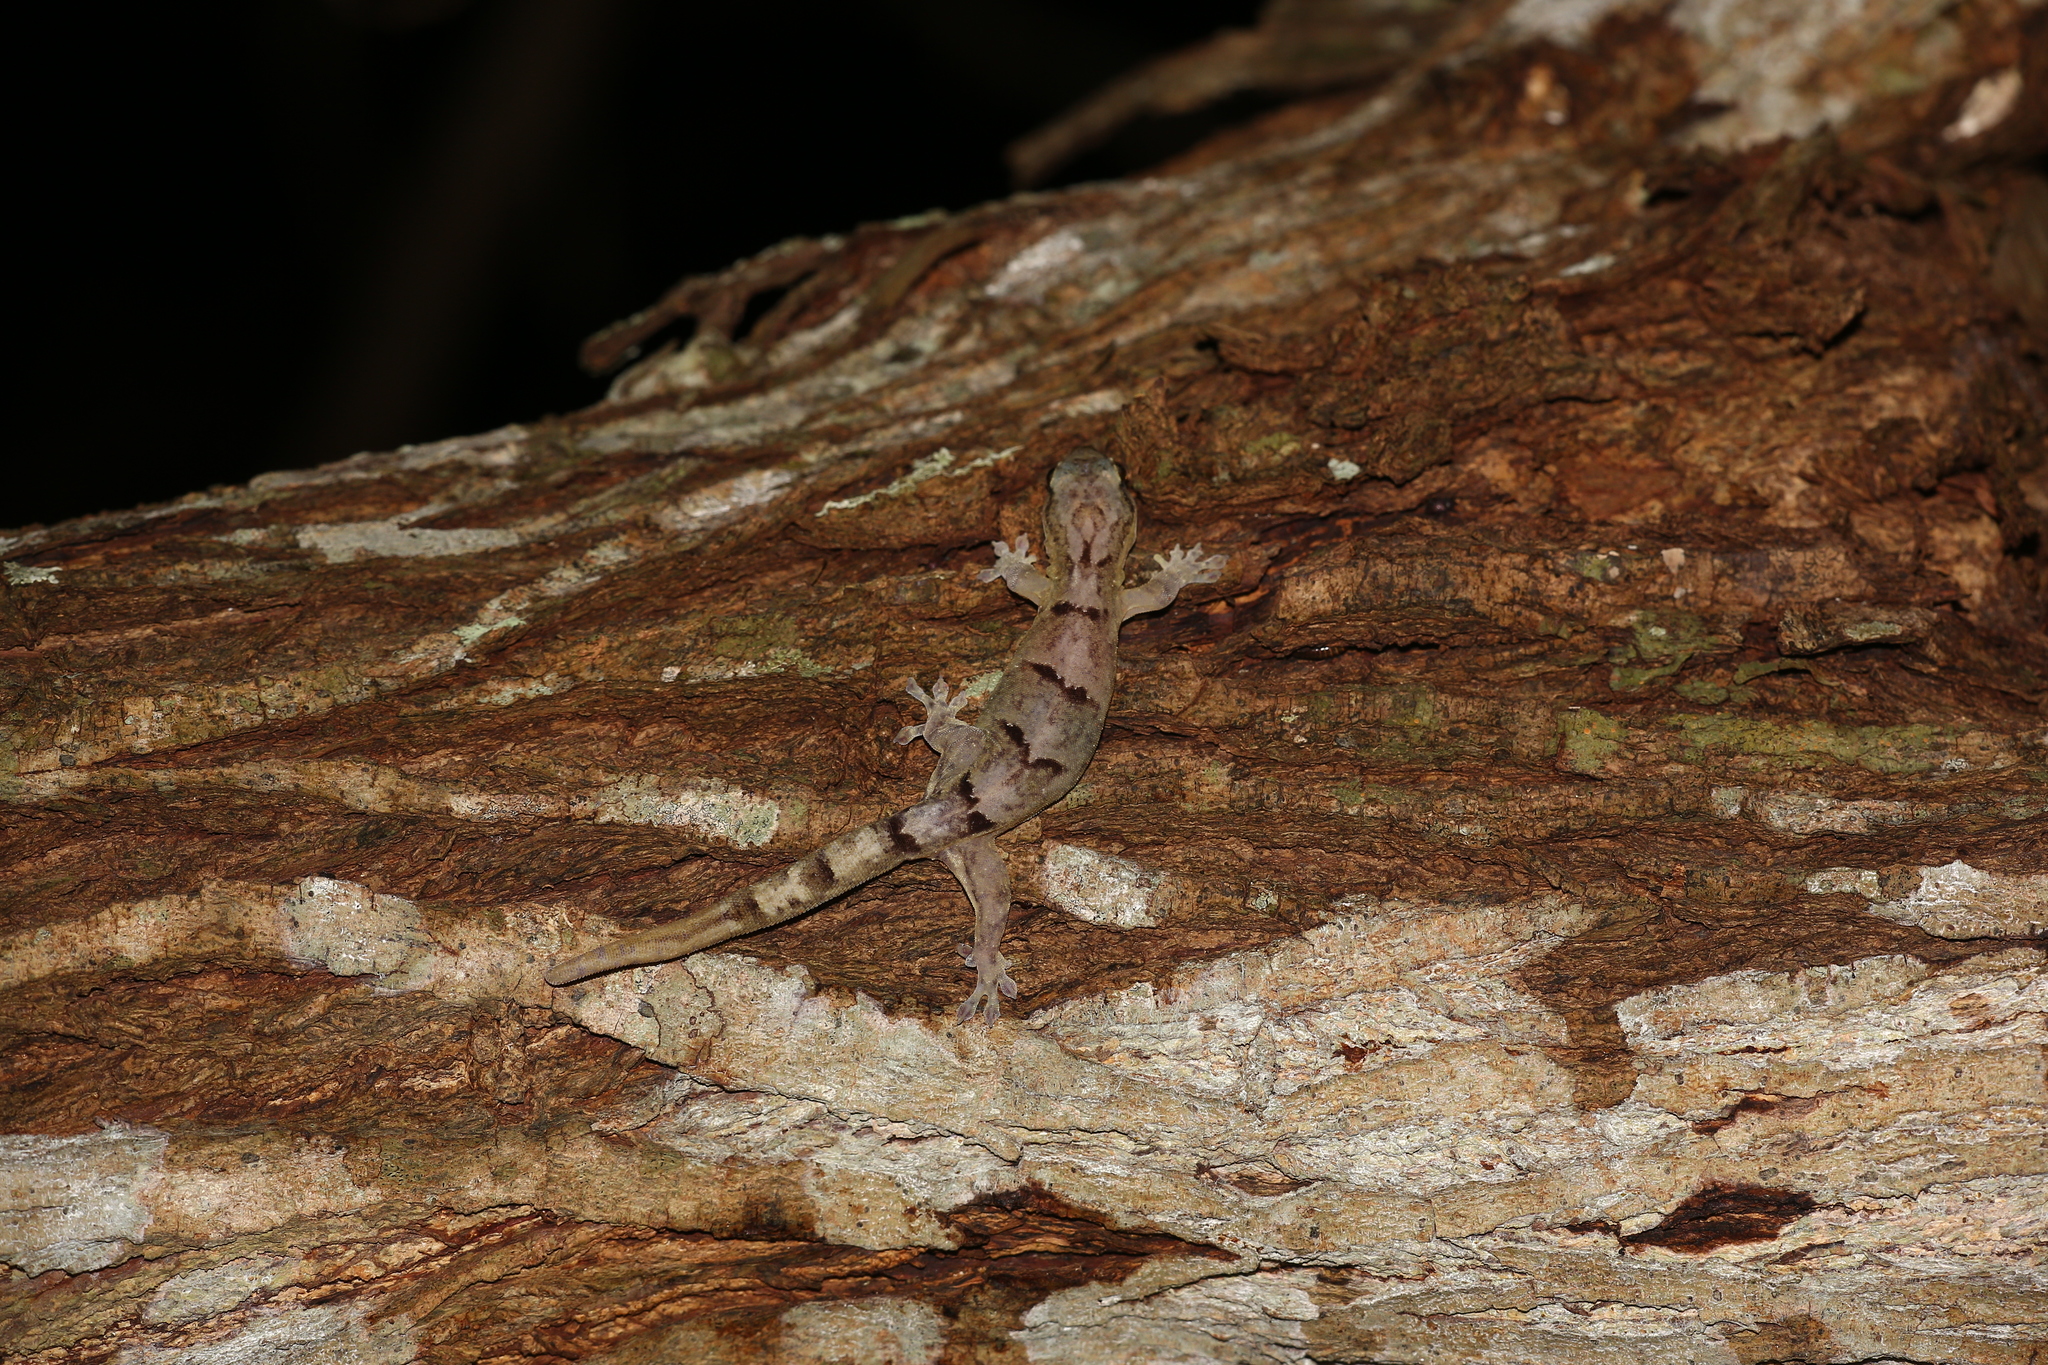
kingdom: Animalia
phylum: Chordata
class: Squamata
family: Diplodactylidae
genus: Bavayia
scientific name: Bavayia robusta
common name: Robust forest bavayia
